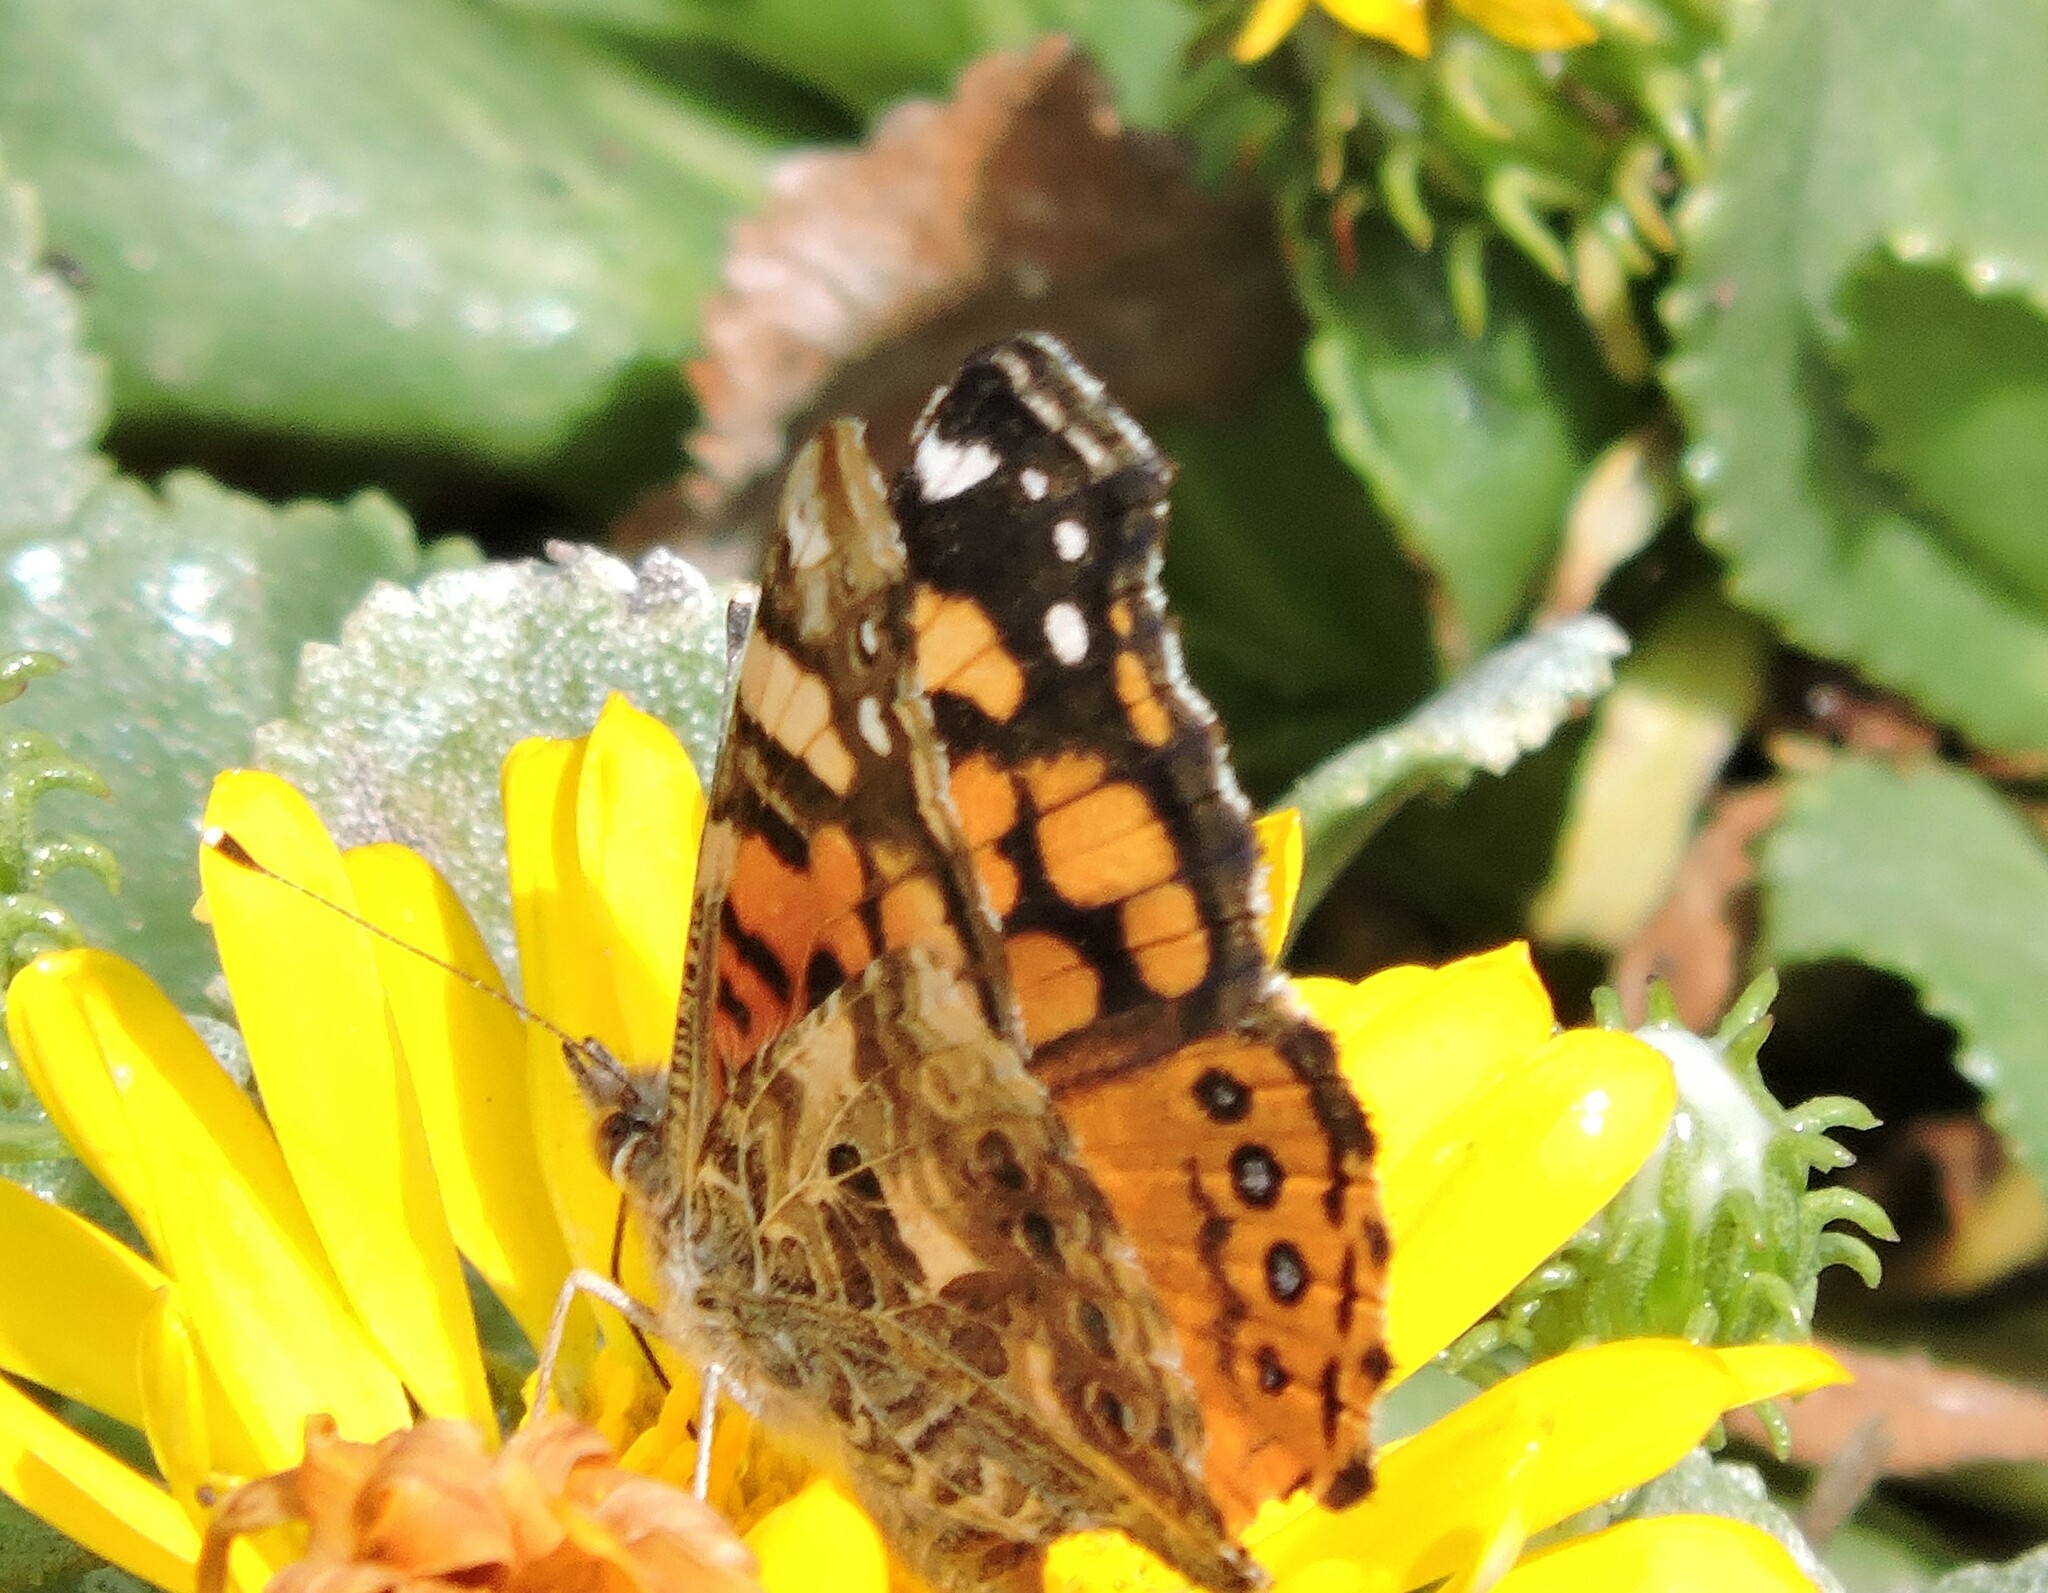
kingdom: Animalia
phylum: Arthropoda
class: Insecta
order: Lepidoptera
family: Nymphalidae
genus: Vanessa
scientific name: Vanessa annabella
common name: West coast lady
